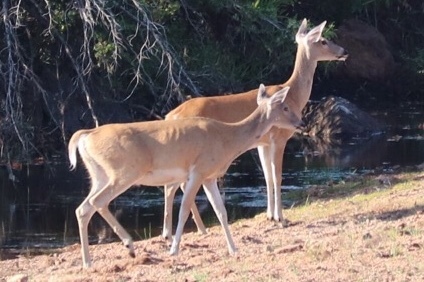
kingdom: Animalia
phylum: Chordata
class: Mammalia
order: Artiodactyla
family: Cervidae
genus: Odocoileus
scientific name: Odocoileus virginianus
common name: White-tailed deer
